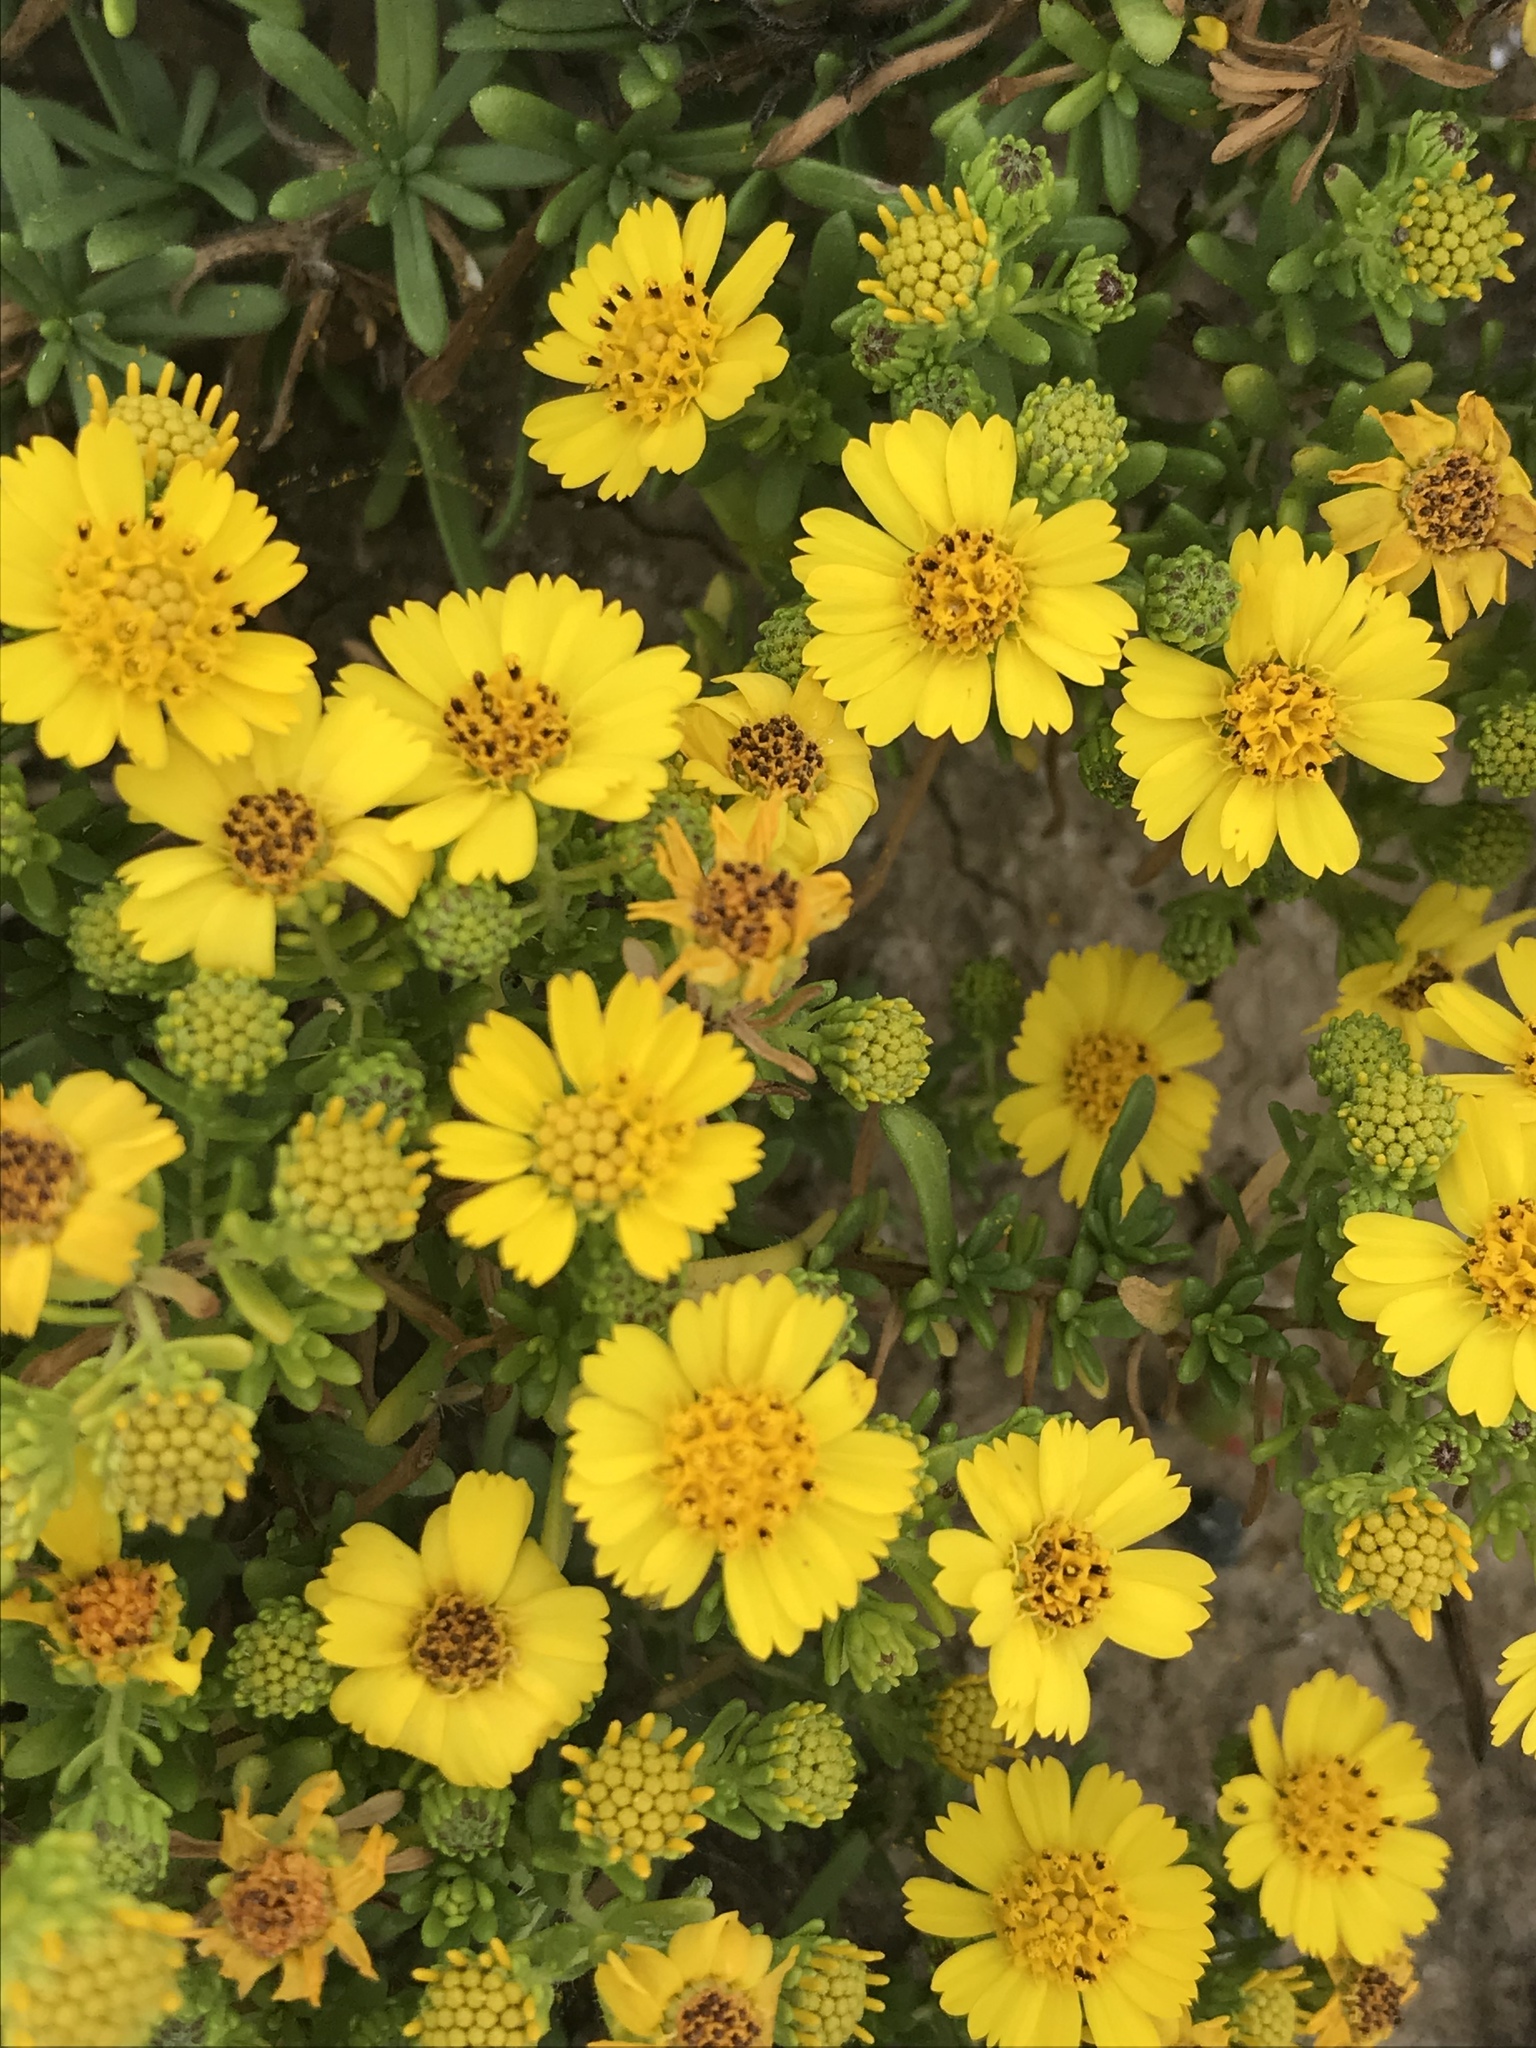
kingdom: Plantae
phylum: Tracheophyta
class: Magnoliopsida
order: Asterales
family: Asteraceae
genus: Deinandra
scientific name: Deinandra clementina
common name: Island tarplant
